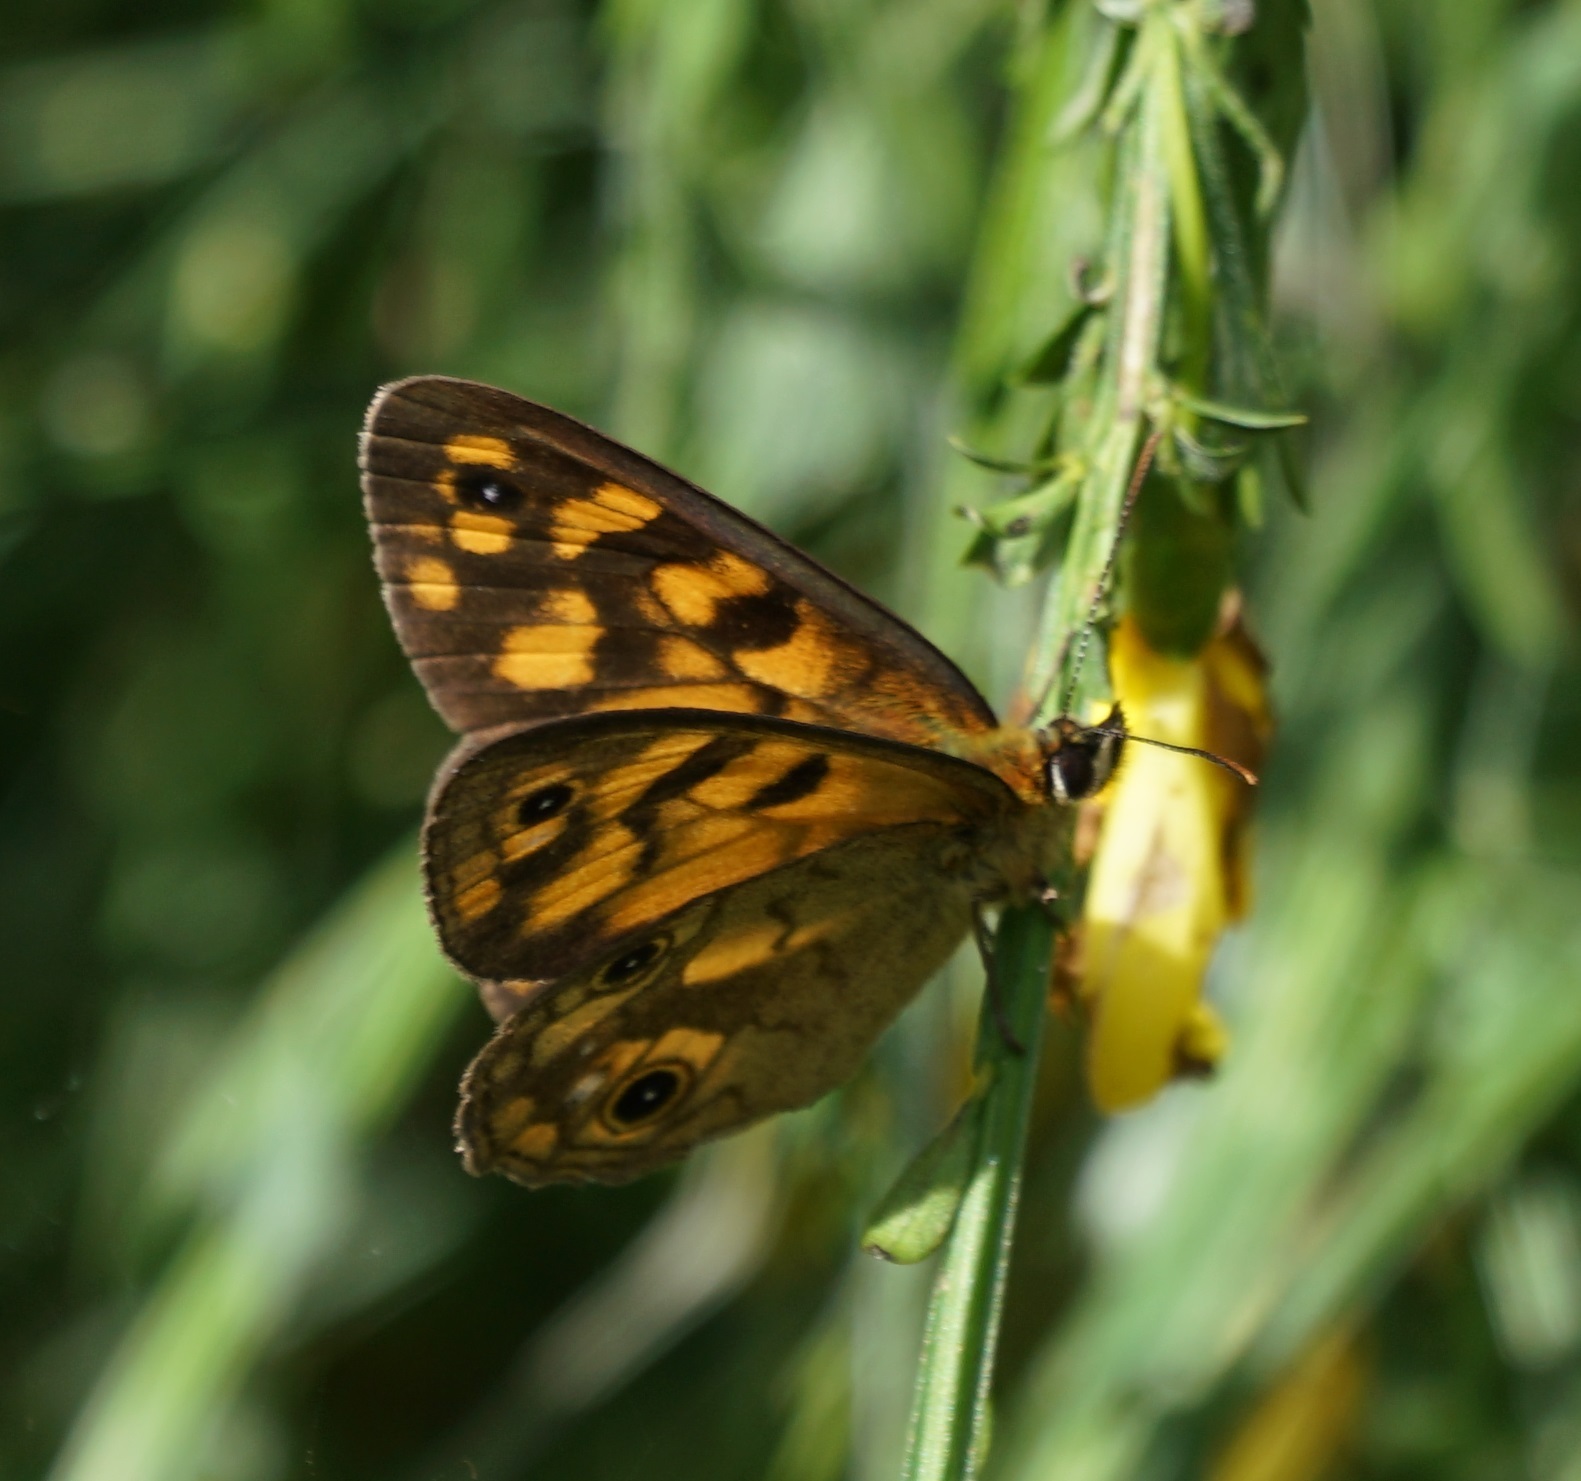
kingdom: Animalia
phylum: Arthropoda
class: Insecta
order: Lepidoptera
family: Nymphalidae
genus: Heteronympha
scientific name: Heteronympha cordace
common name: Bright-eyed brown
